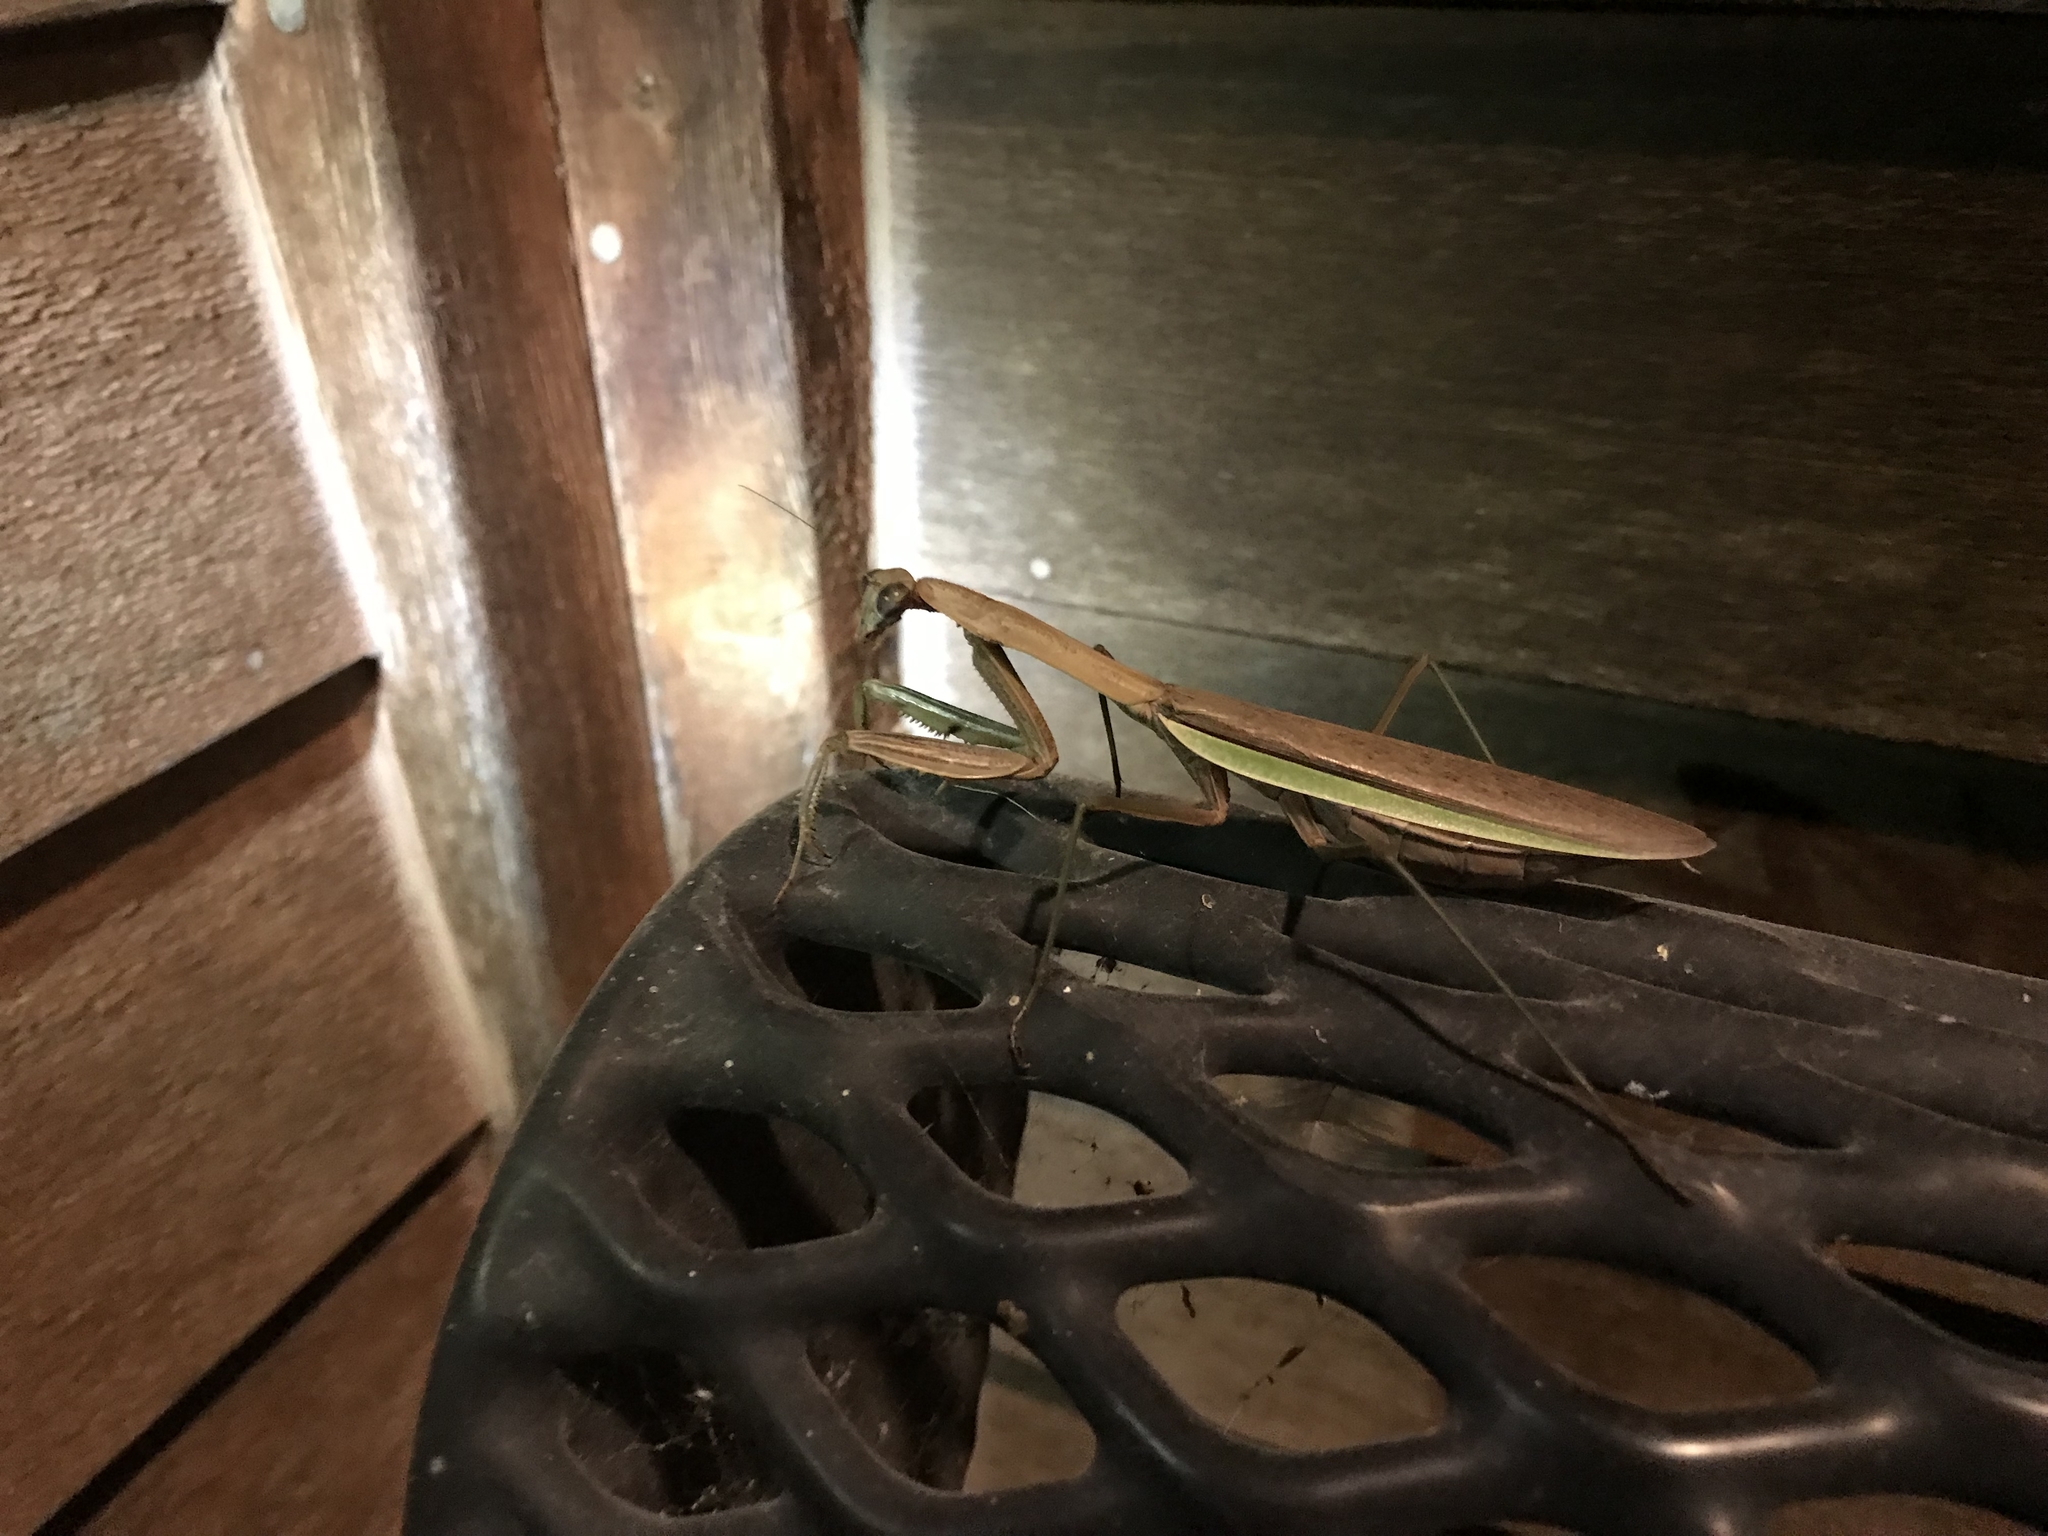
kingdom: Animalia
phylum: Arthropoda
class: Insecta
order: Mantodea
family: Mantidae
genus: Tenodera
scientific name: Tenodera sinensis
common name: Chinese mantis
